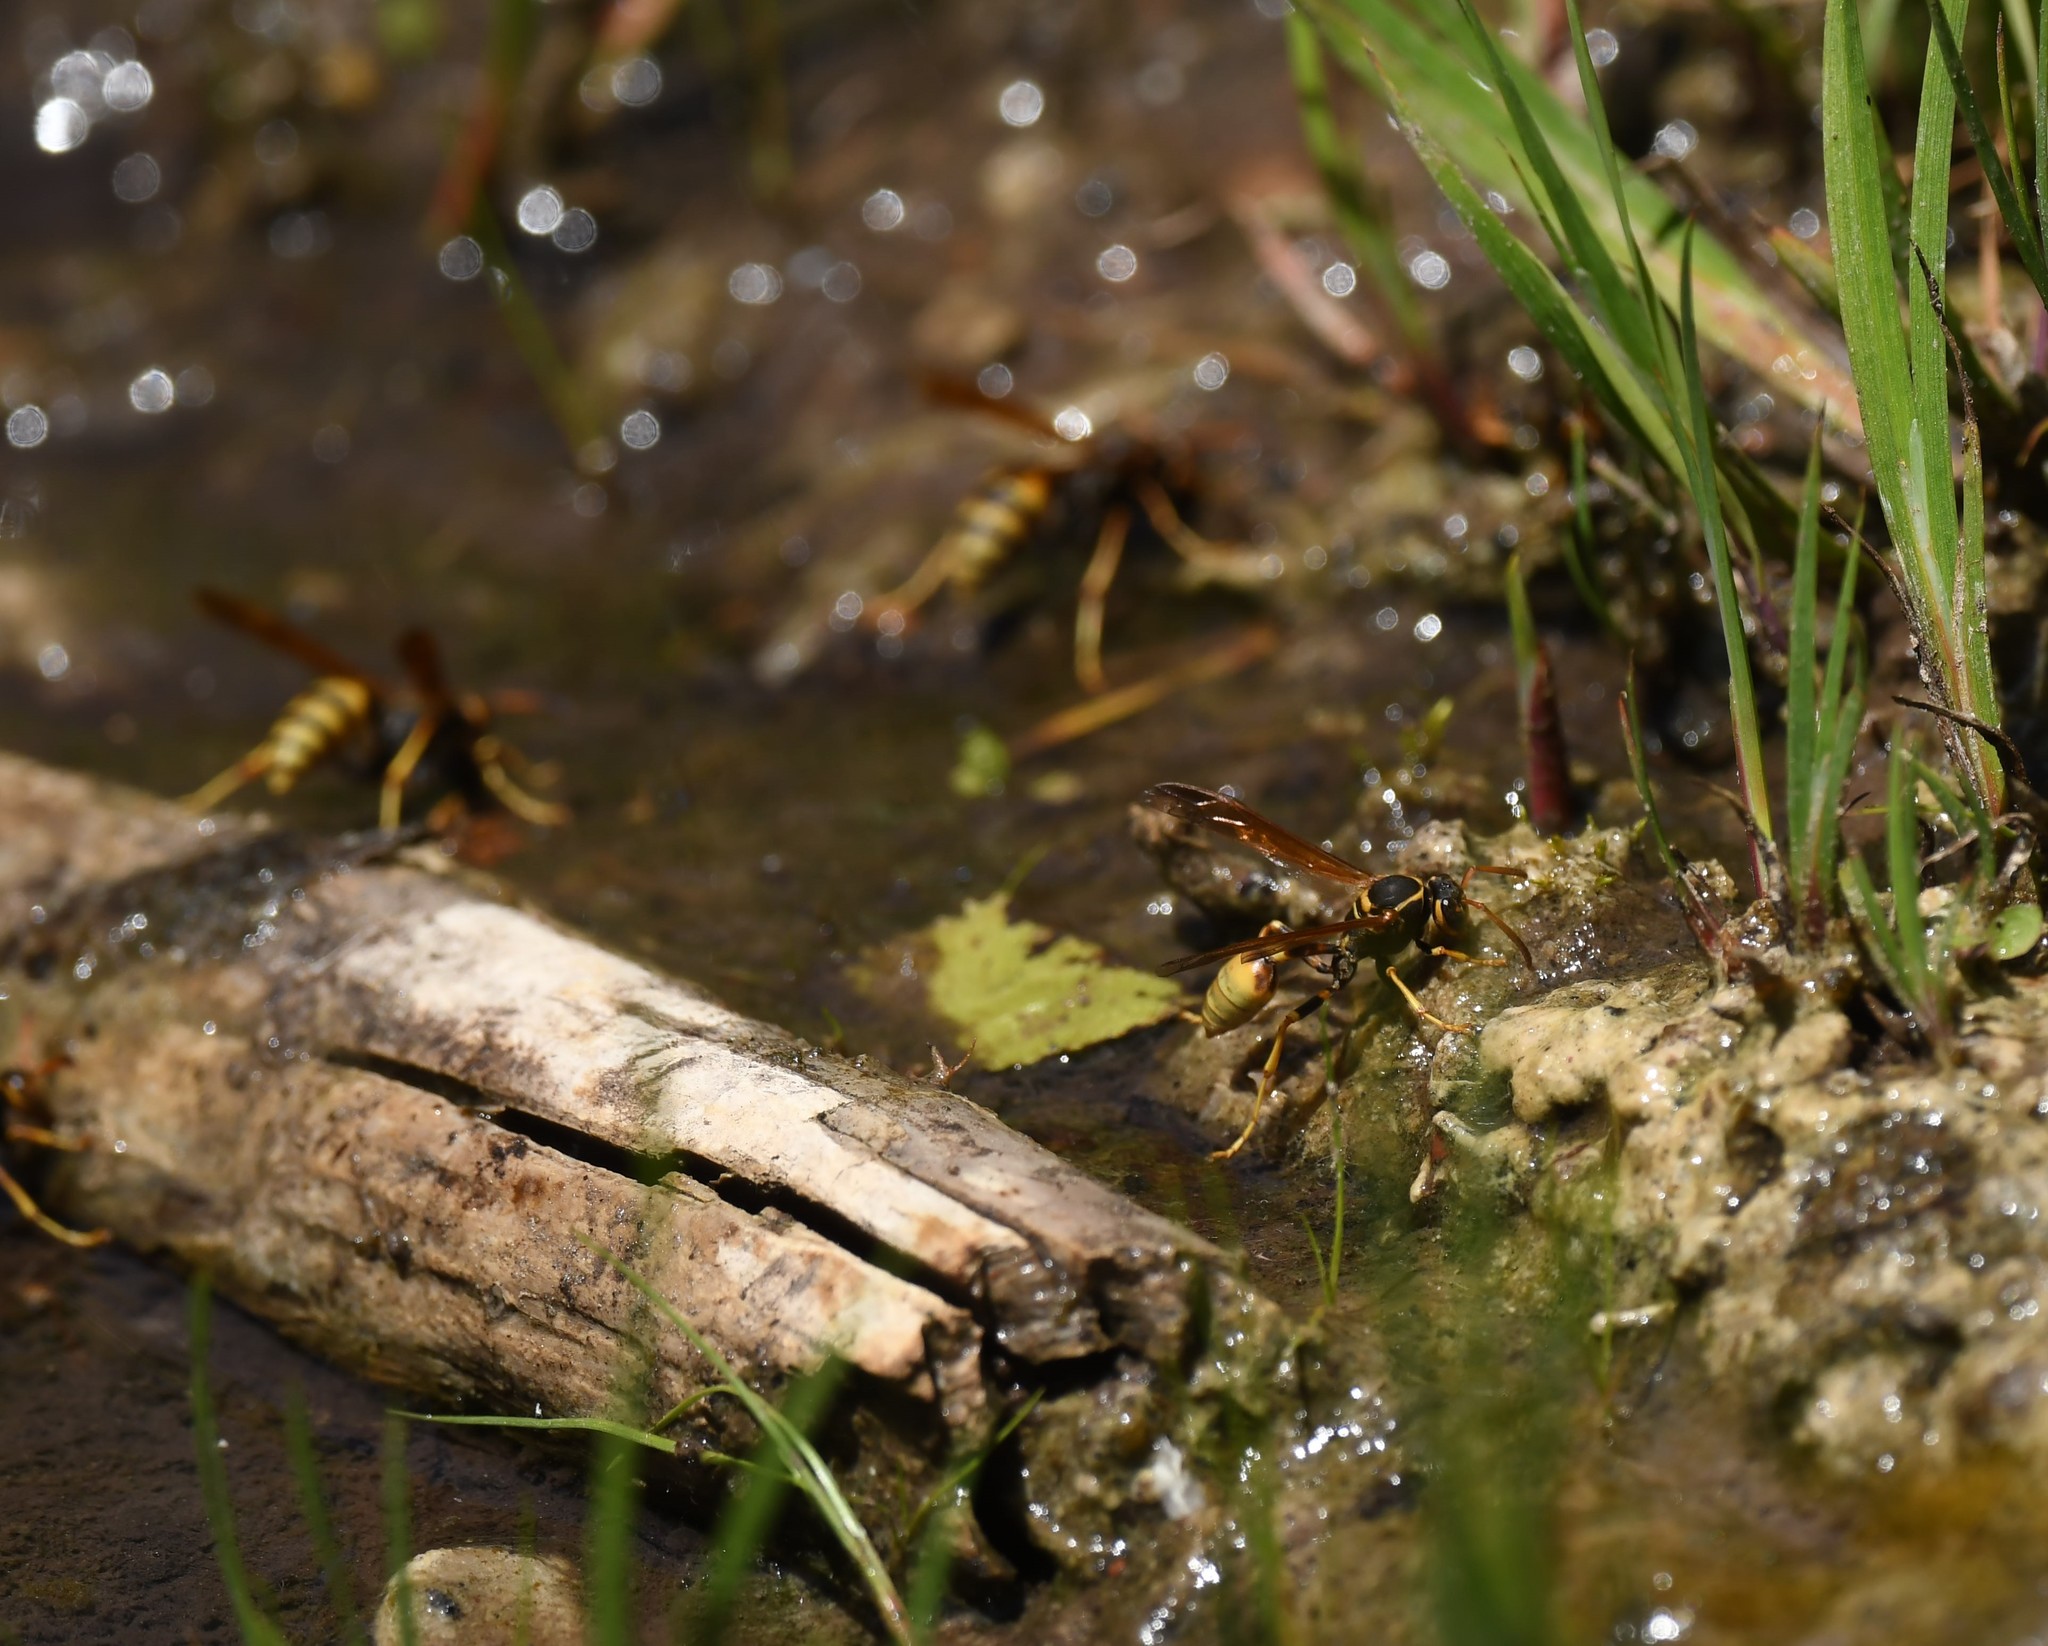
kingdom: Animalia
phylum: Arthropoda
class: Insecta
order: Hymenoptera
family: Vespidae
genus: Mischocyttarus
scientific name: Mischocyttarus flavitarsis
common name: Wasp
